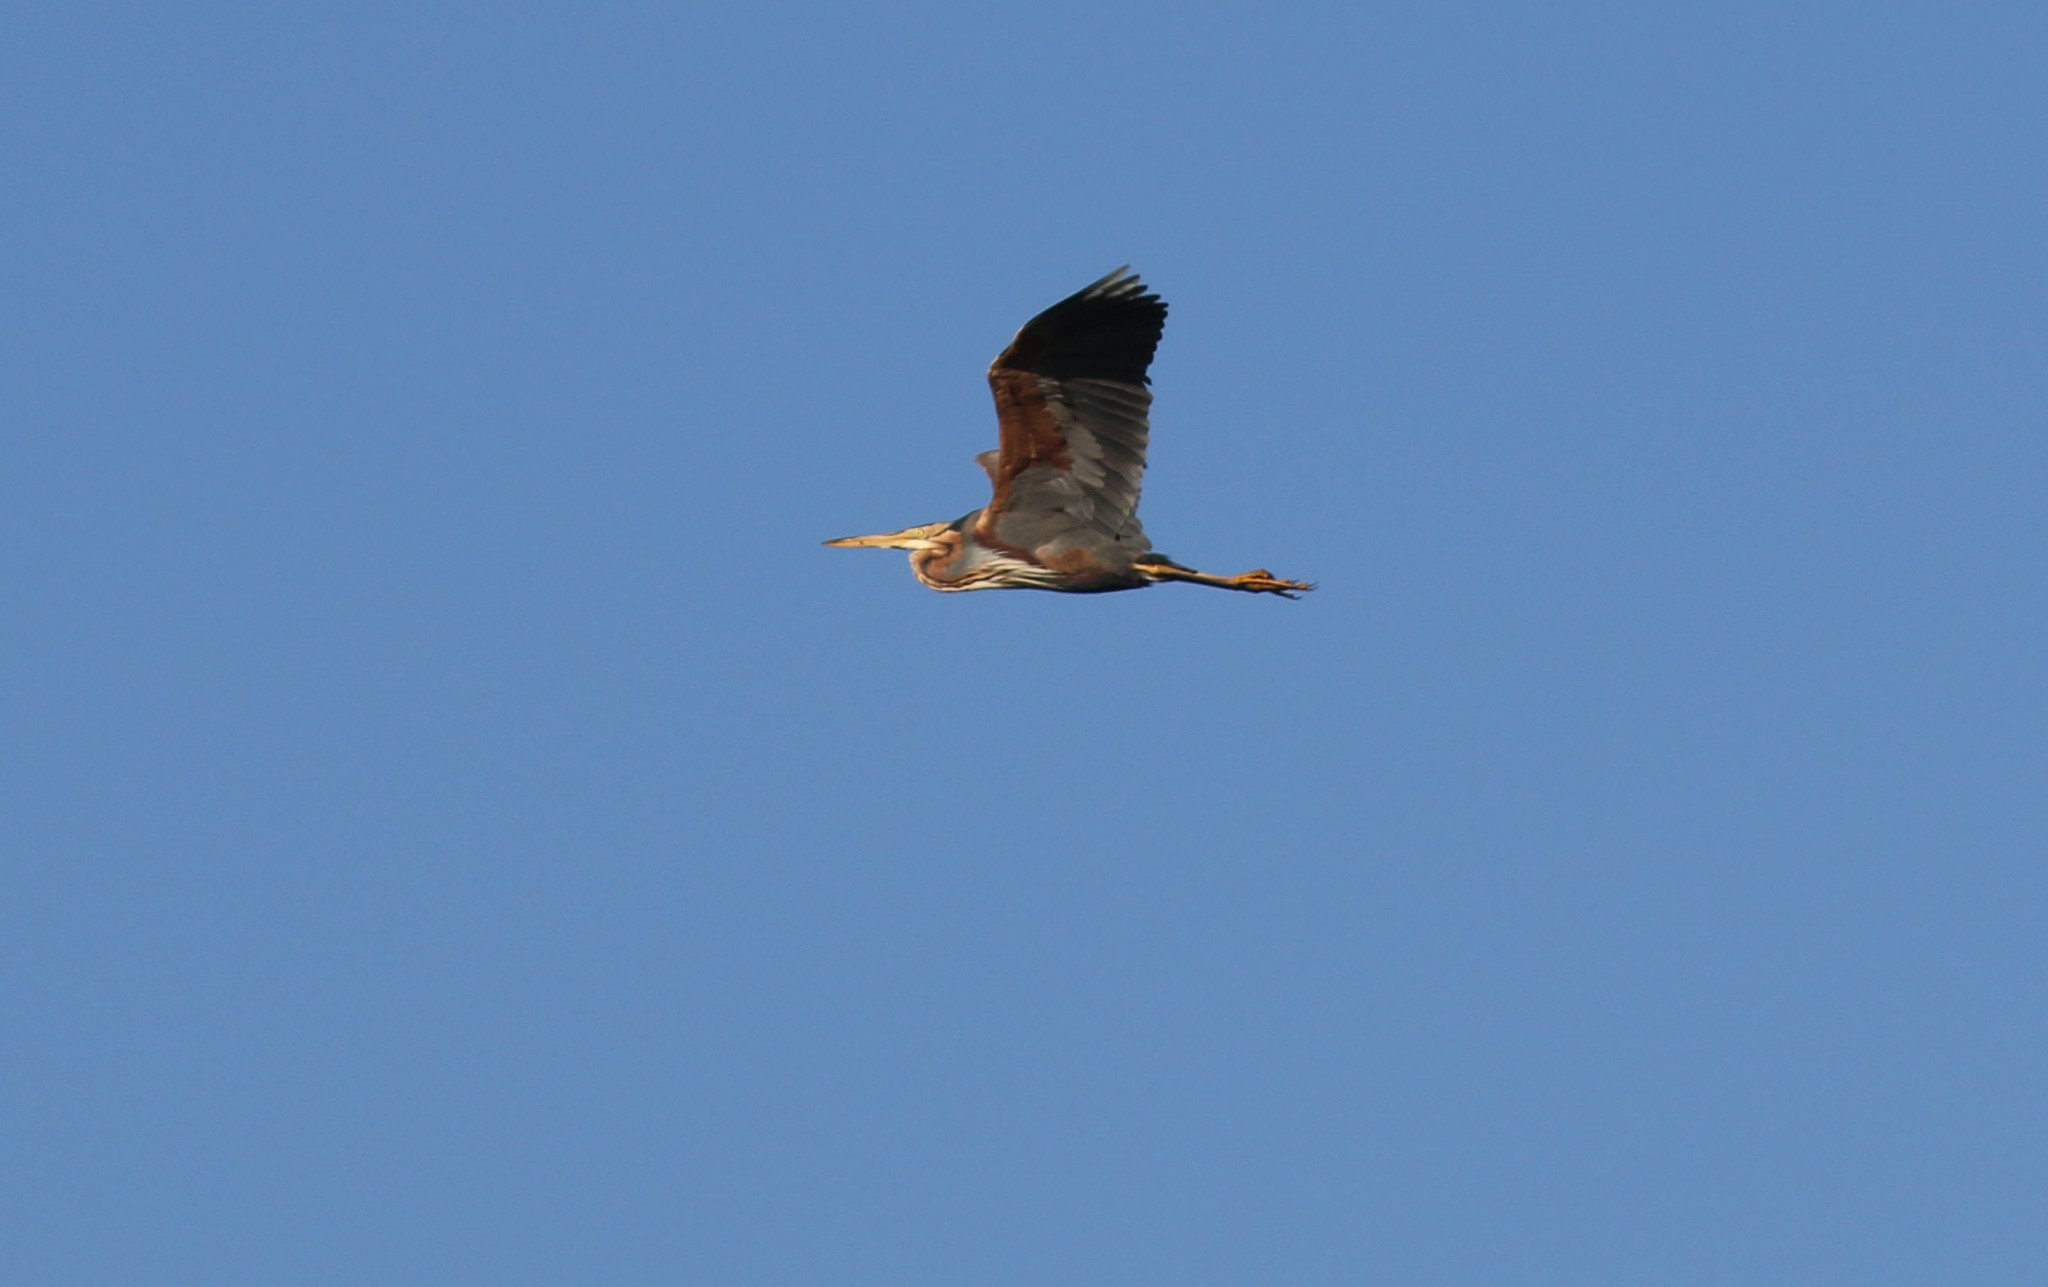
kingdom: Animalia
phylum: Chordata
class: Aves
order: Pelecaniformes
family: Ardeidae
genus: Ardea
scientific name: Ardea purpurea
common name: Purple heron
